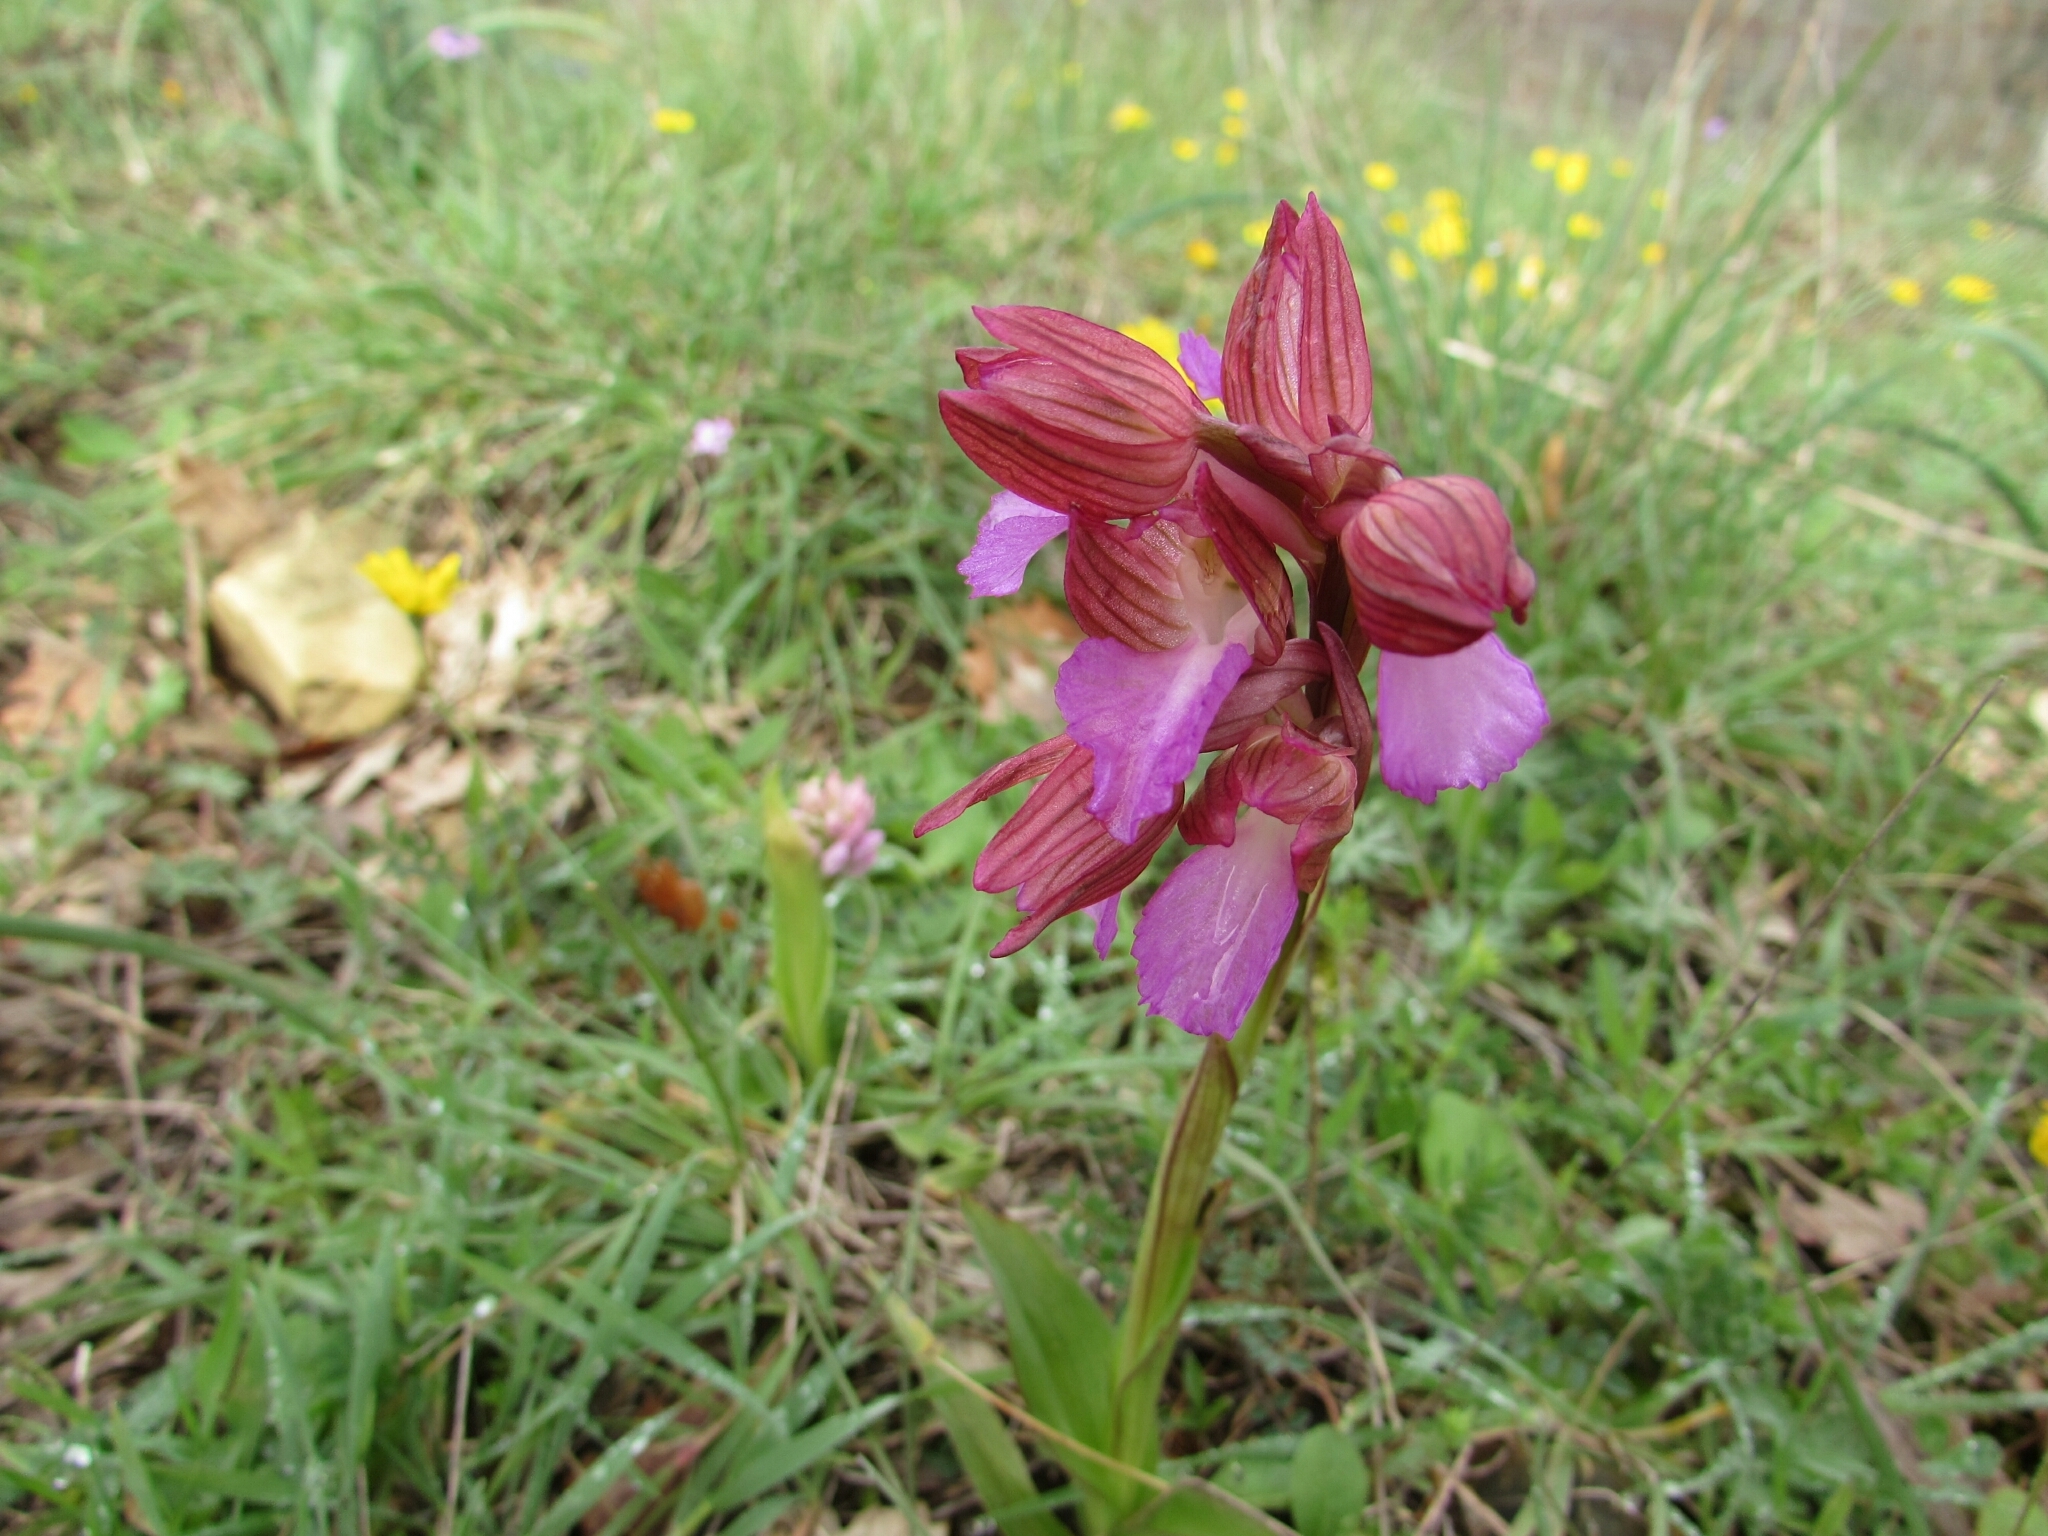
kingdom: Plantae
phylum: Tracheophyta
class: Liliopsida
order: Asparagales
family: Orchidaceae
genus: Anacamptis
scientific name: Anacamptis papilionacea
